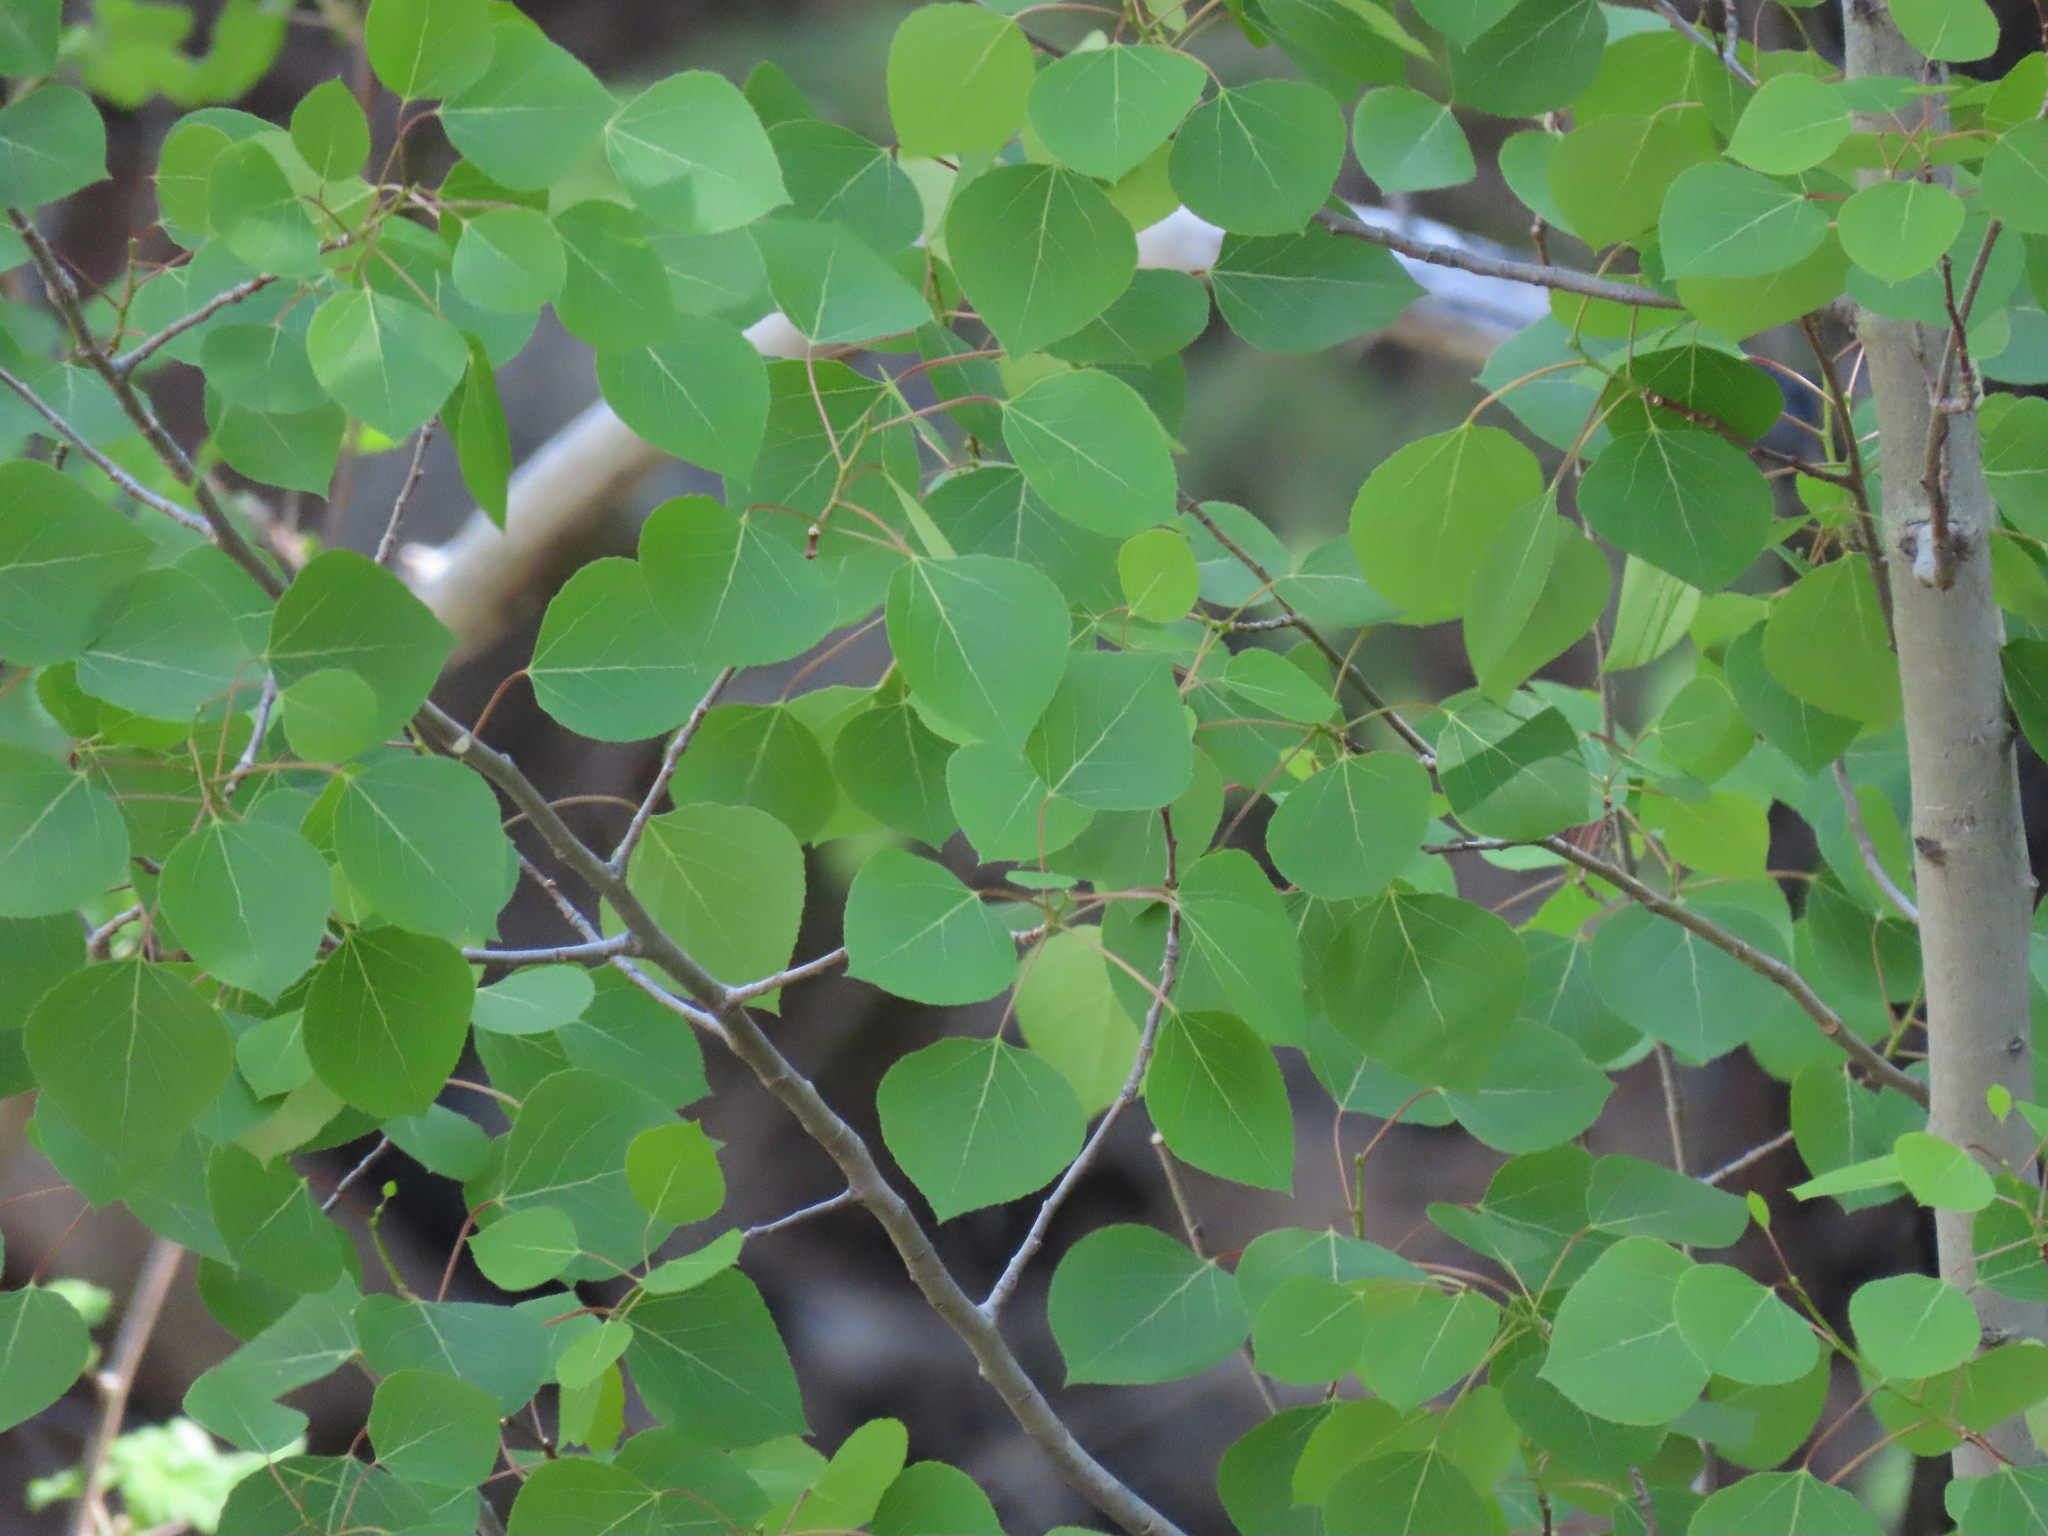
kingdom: Plantae
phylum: Tracheophyta
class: Magnoliopsida
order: Malpighiales
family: Salicaceae
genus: Populus
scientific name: Populus tremuloides
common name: Quaking aspen
